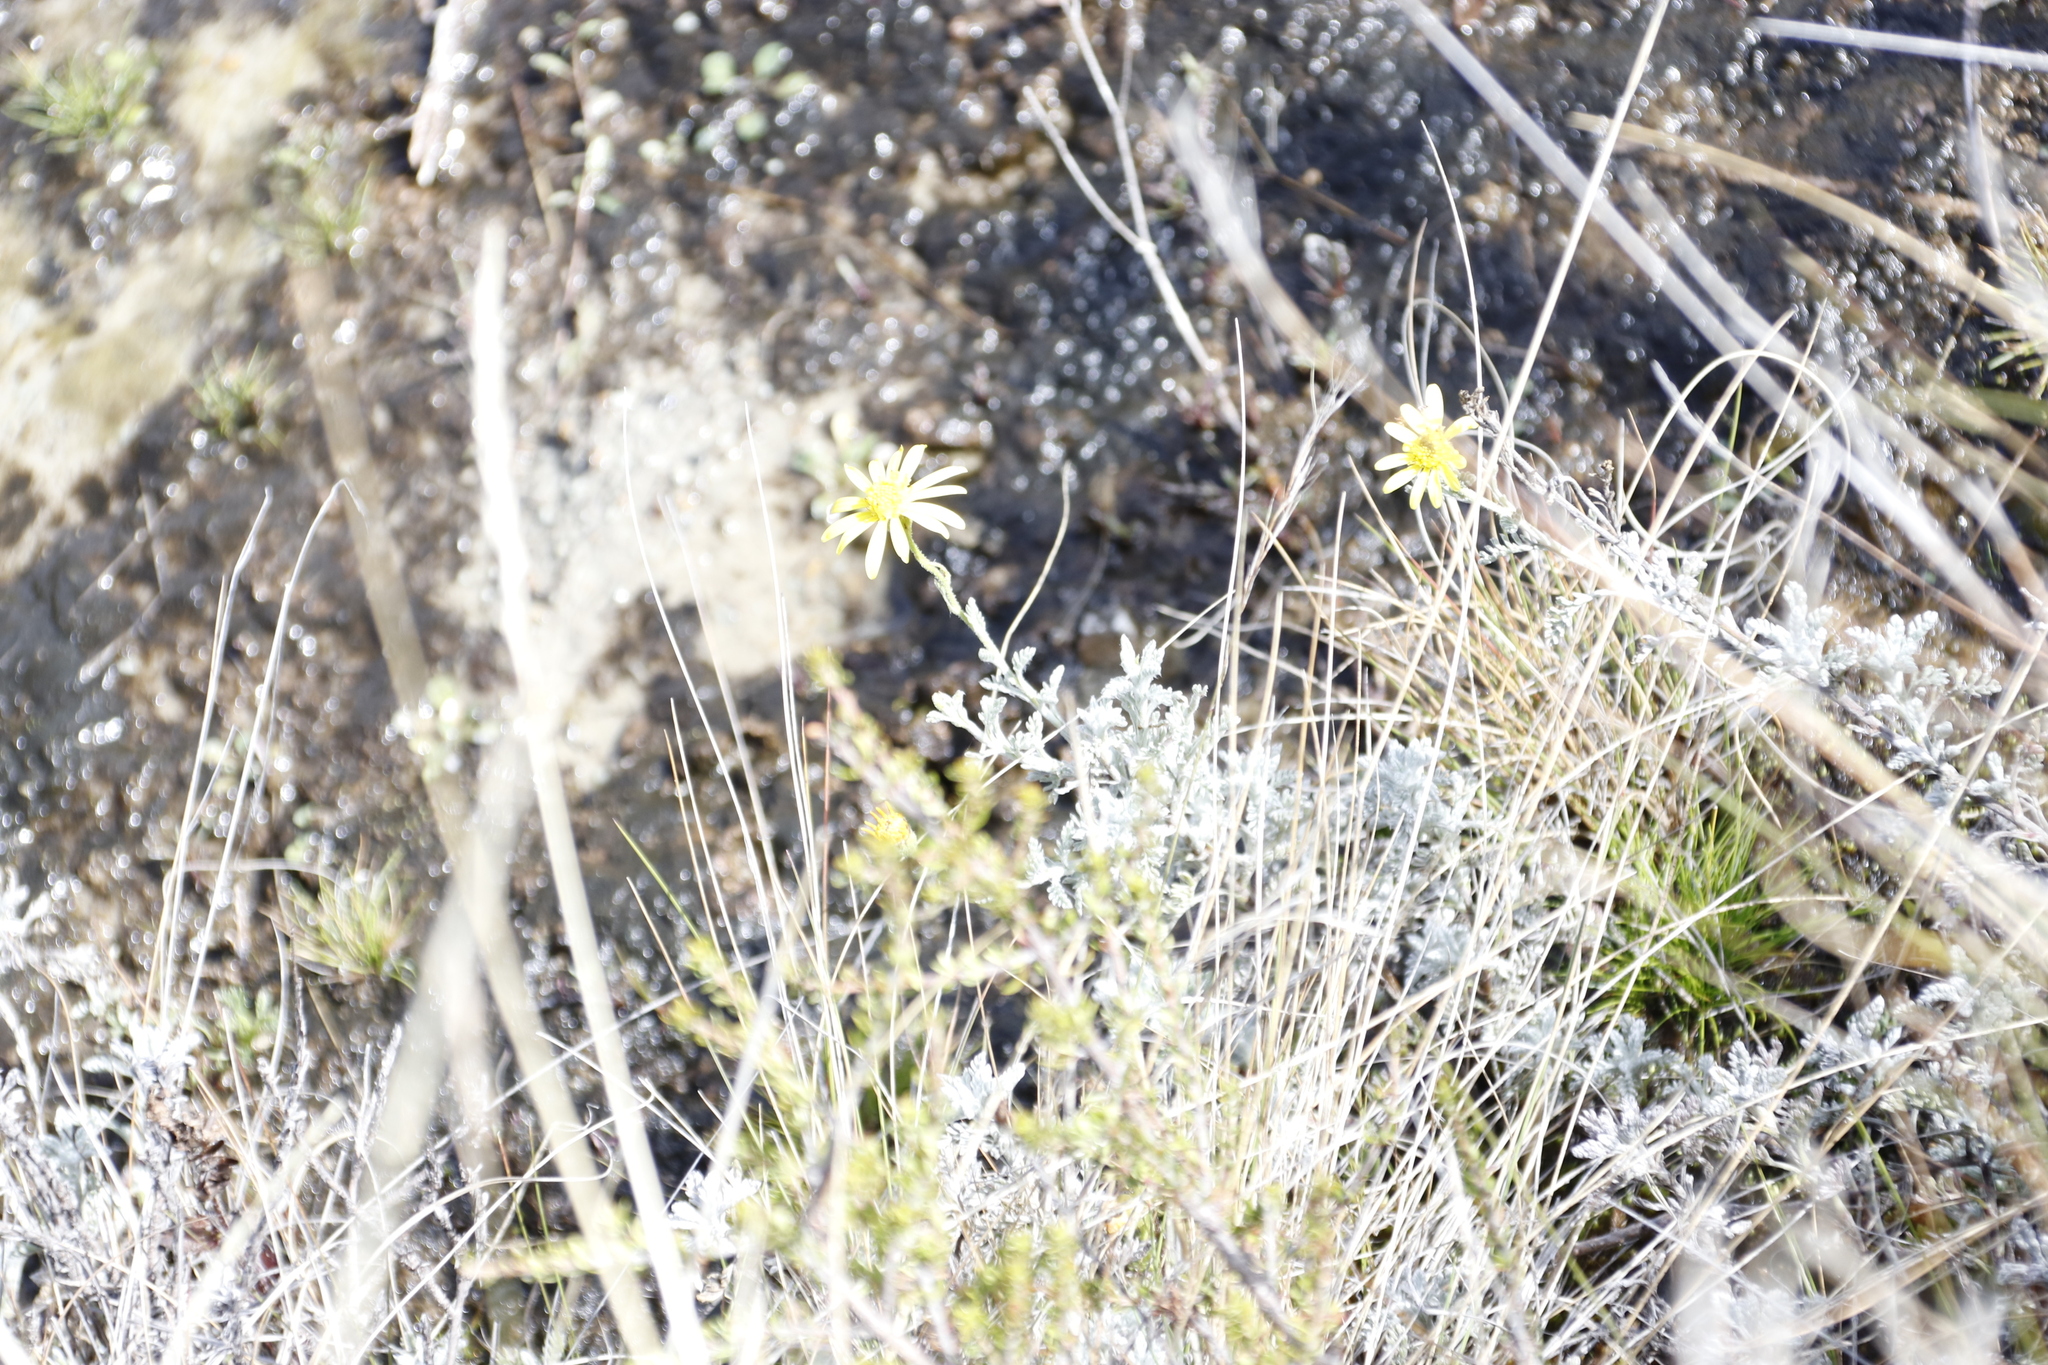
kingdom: Plantae
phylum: Tracheophyta
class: Magnoliopsida
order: Asterales
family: Asteraceae
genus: Senecio
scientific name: Senecio seminiveus
